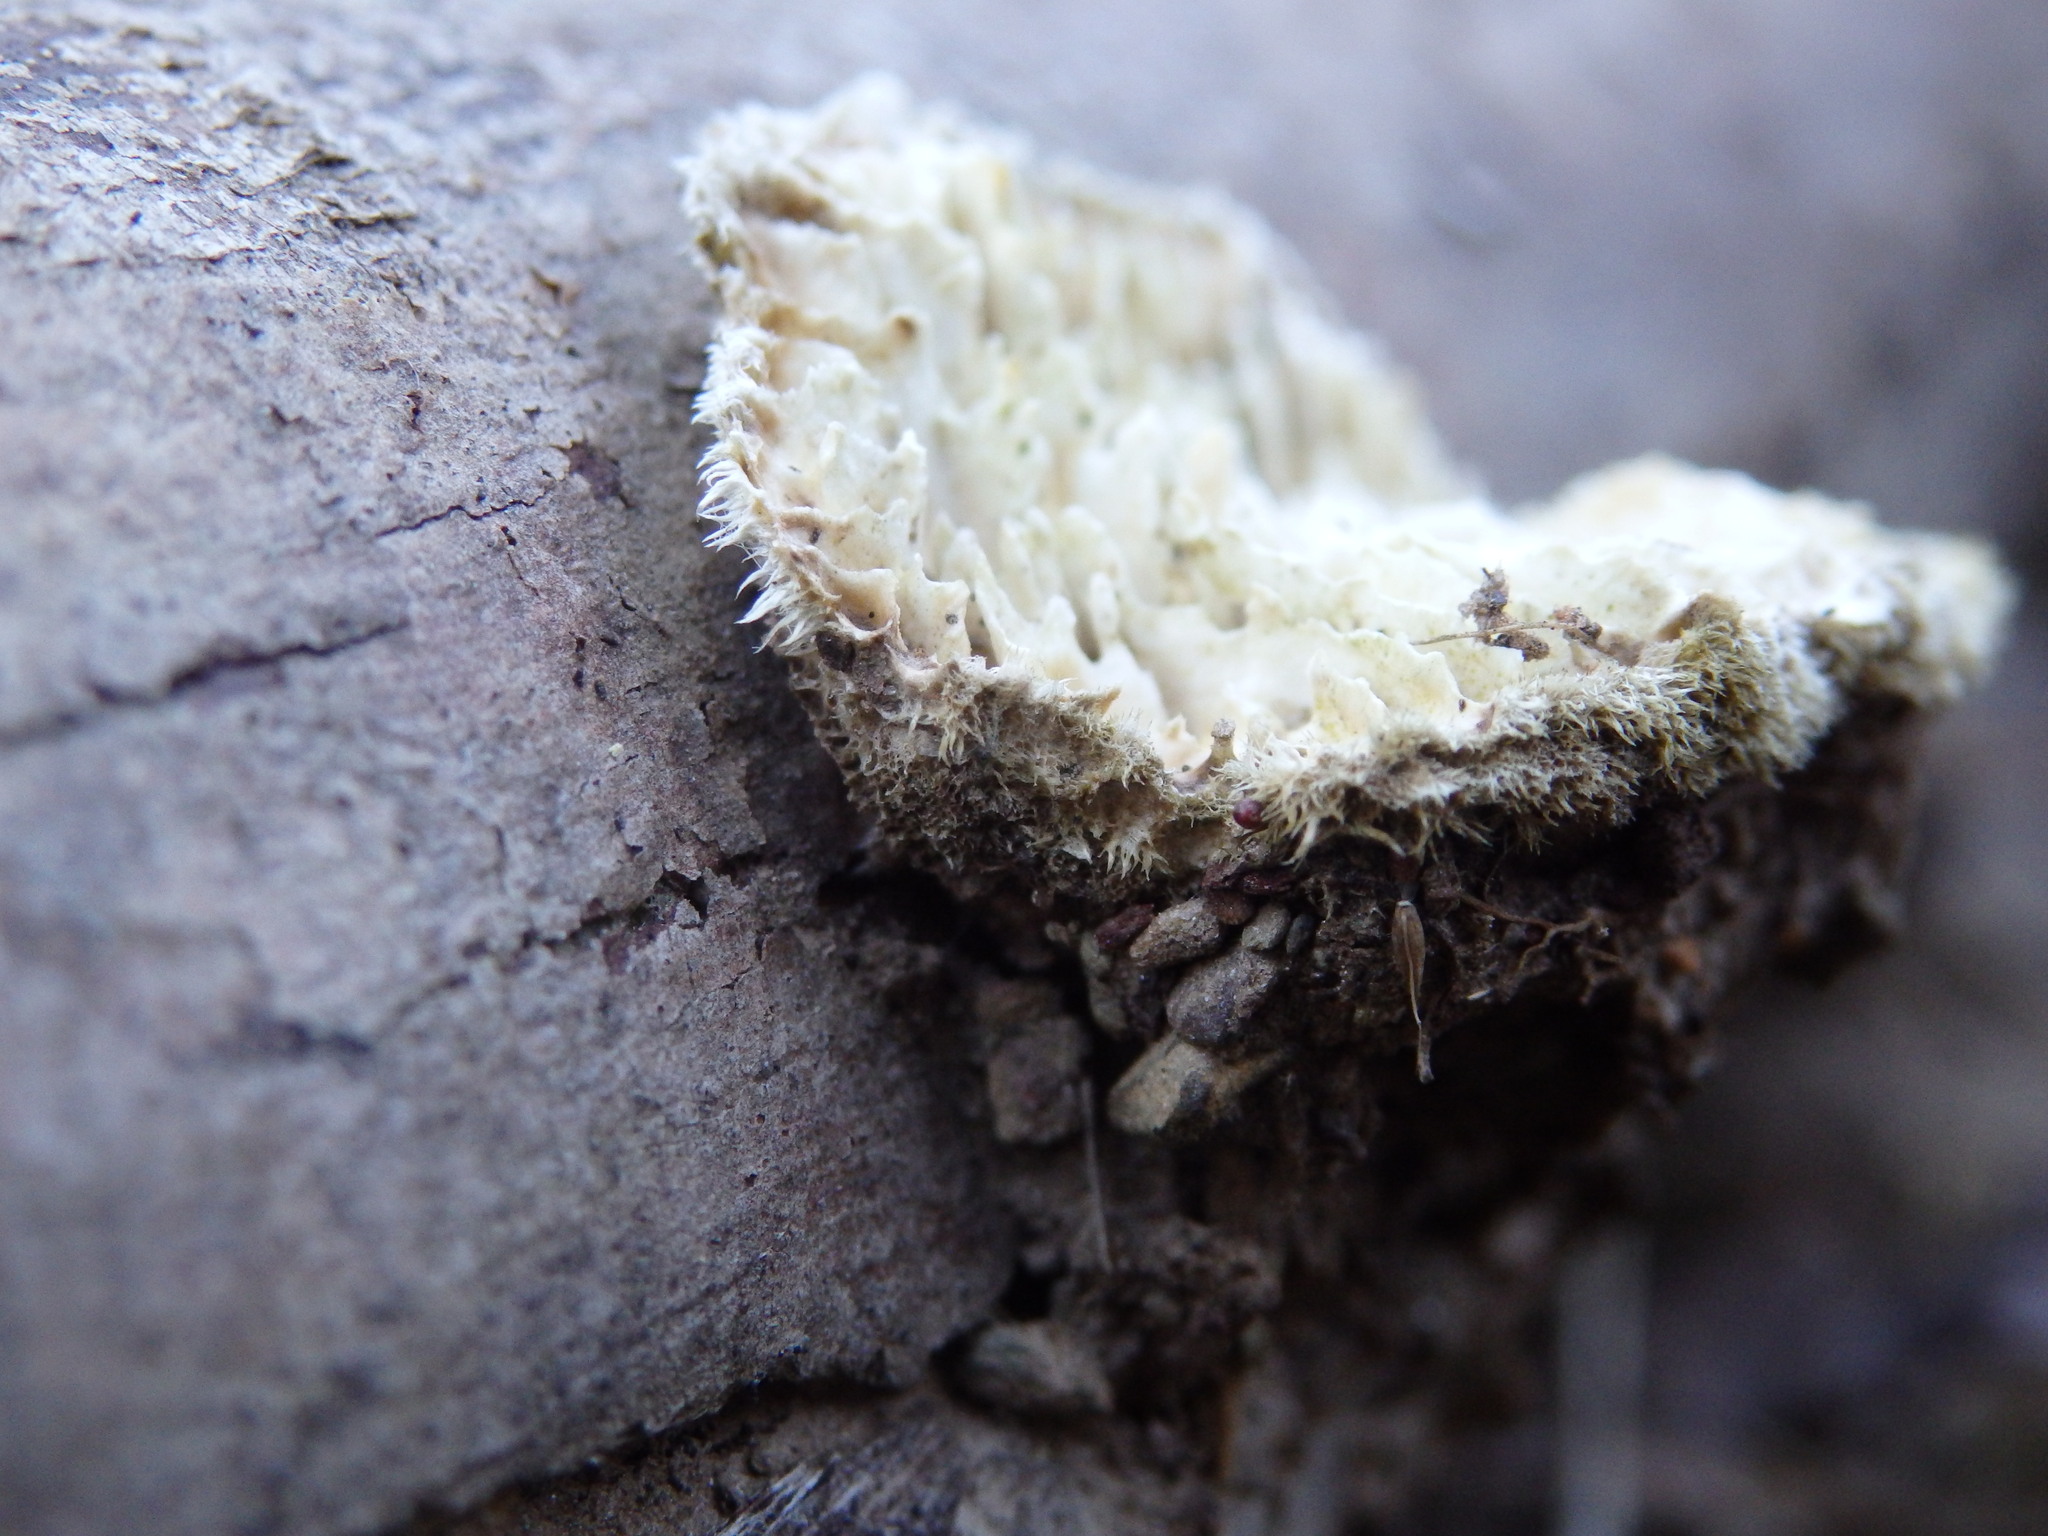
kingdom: Fungi
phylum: Basidiomycota
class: Agaricomycetes
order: Polyporales
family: Polyporaceae
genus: Lenzites
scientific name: Lenzites betulinus
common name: Birch mazegill
